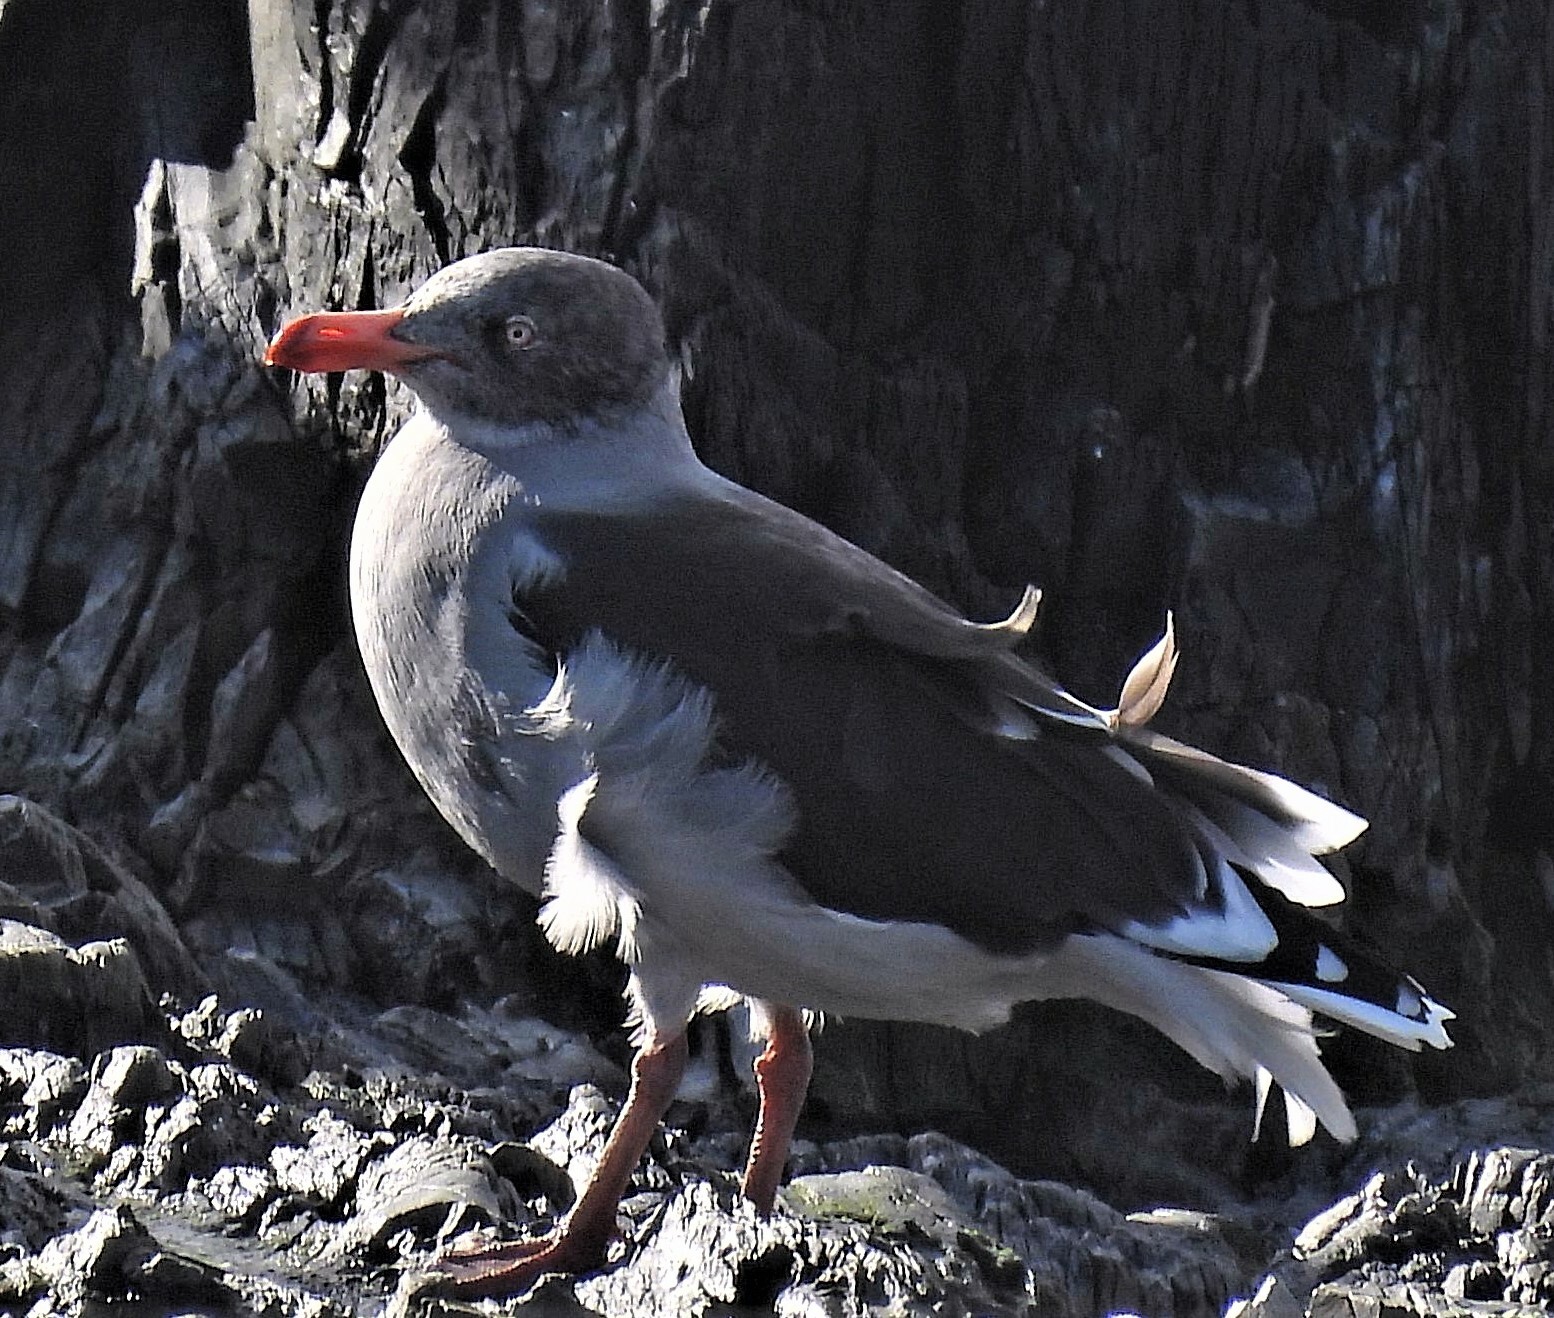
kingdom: Animalia
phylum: Chordata
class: Aves
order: Charadriiformes
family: Laridae
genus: Leucophaeus
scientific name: Leucophaeus scoresbii
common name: Dolphin gull
